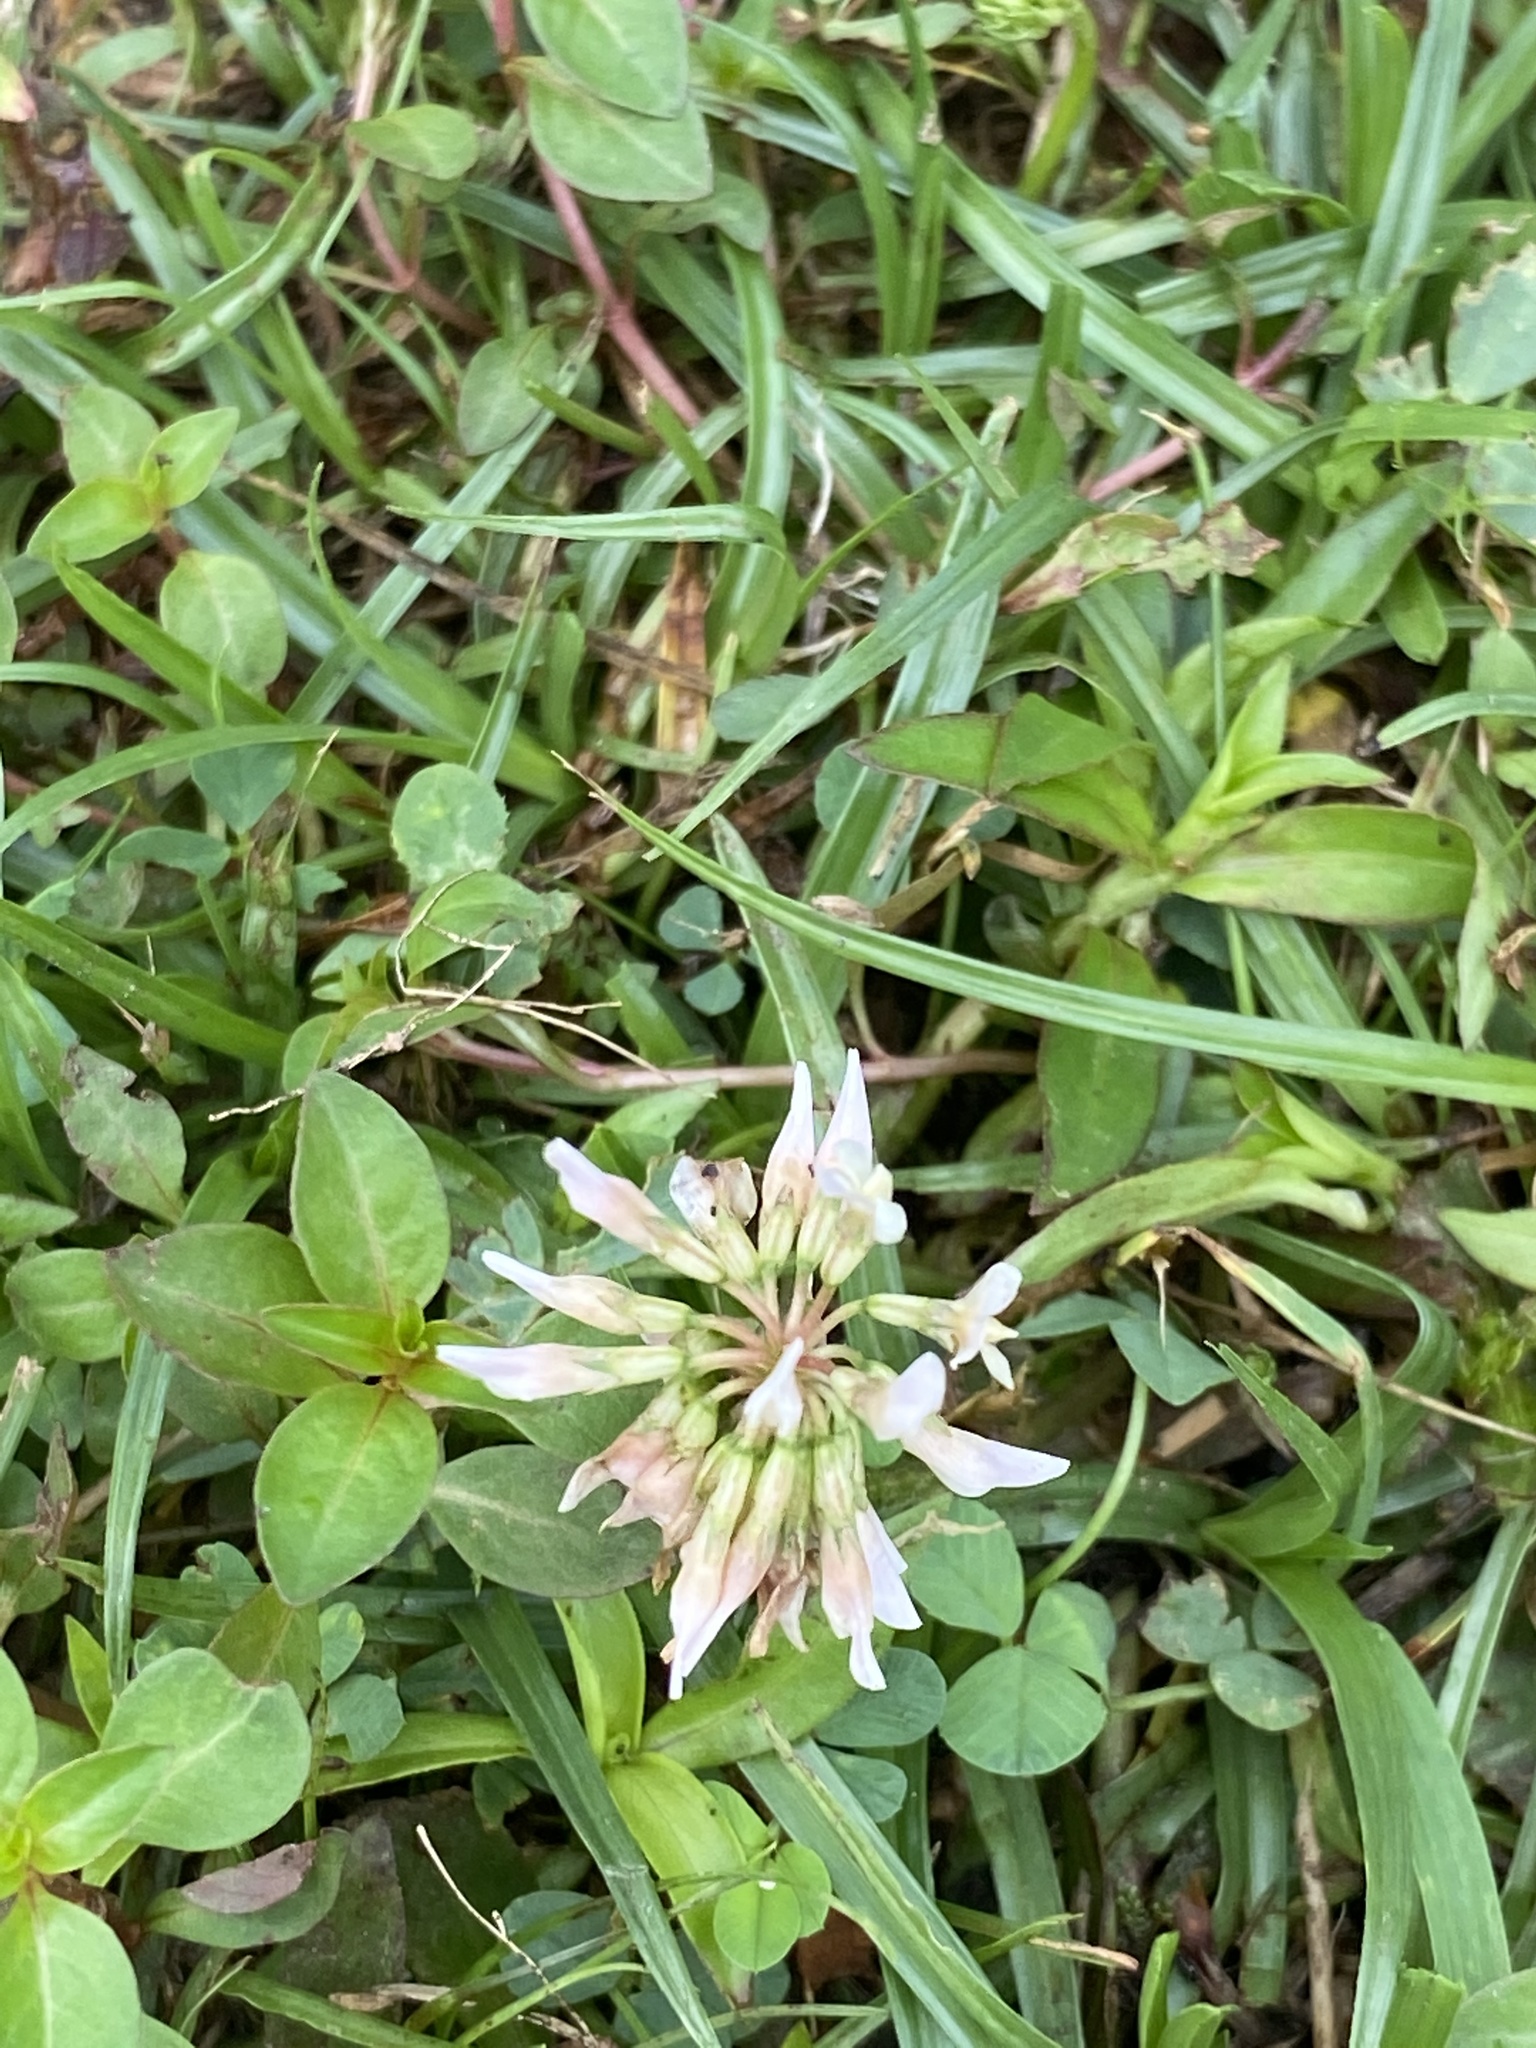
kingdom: Plantae
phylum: Tracheophyta
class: Magnoliopsida
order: Fabales
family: Fabaceae
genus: Trifolium
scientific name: Trifolium repens
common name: White clover
